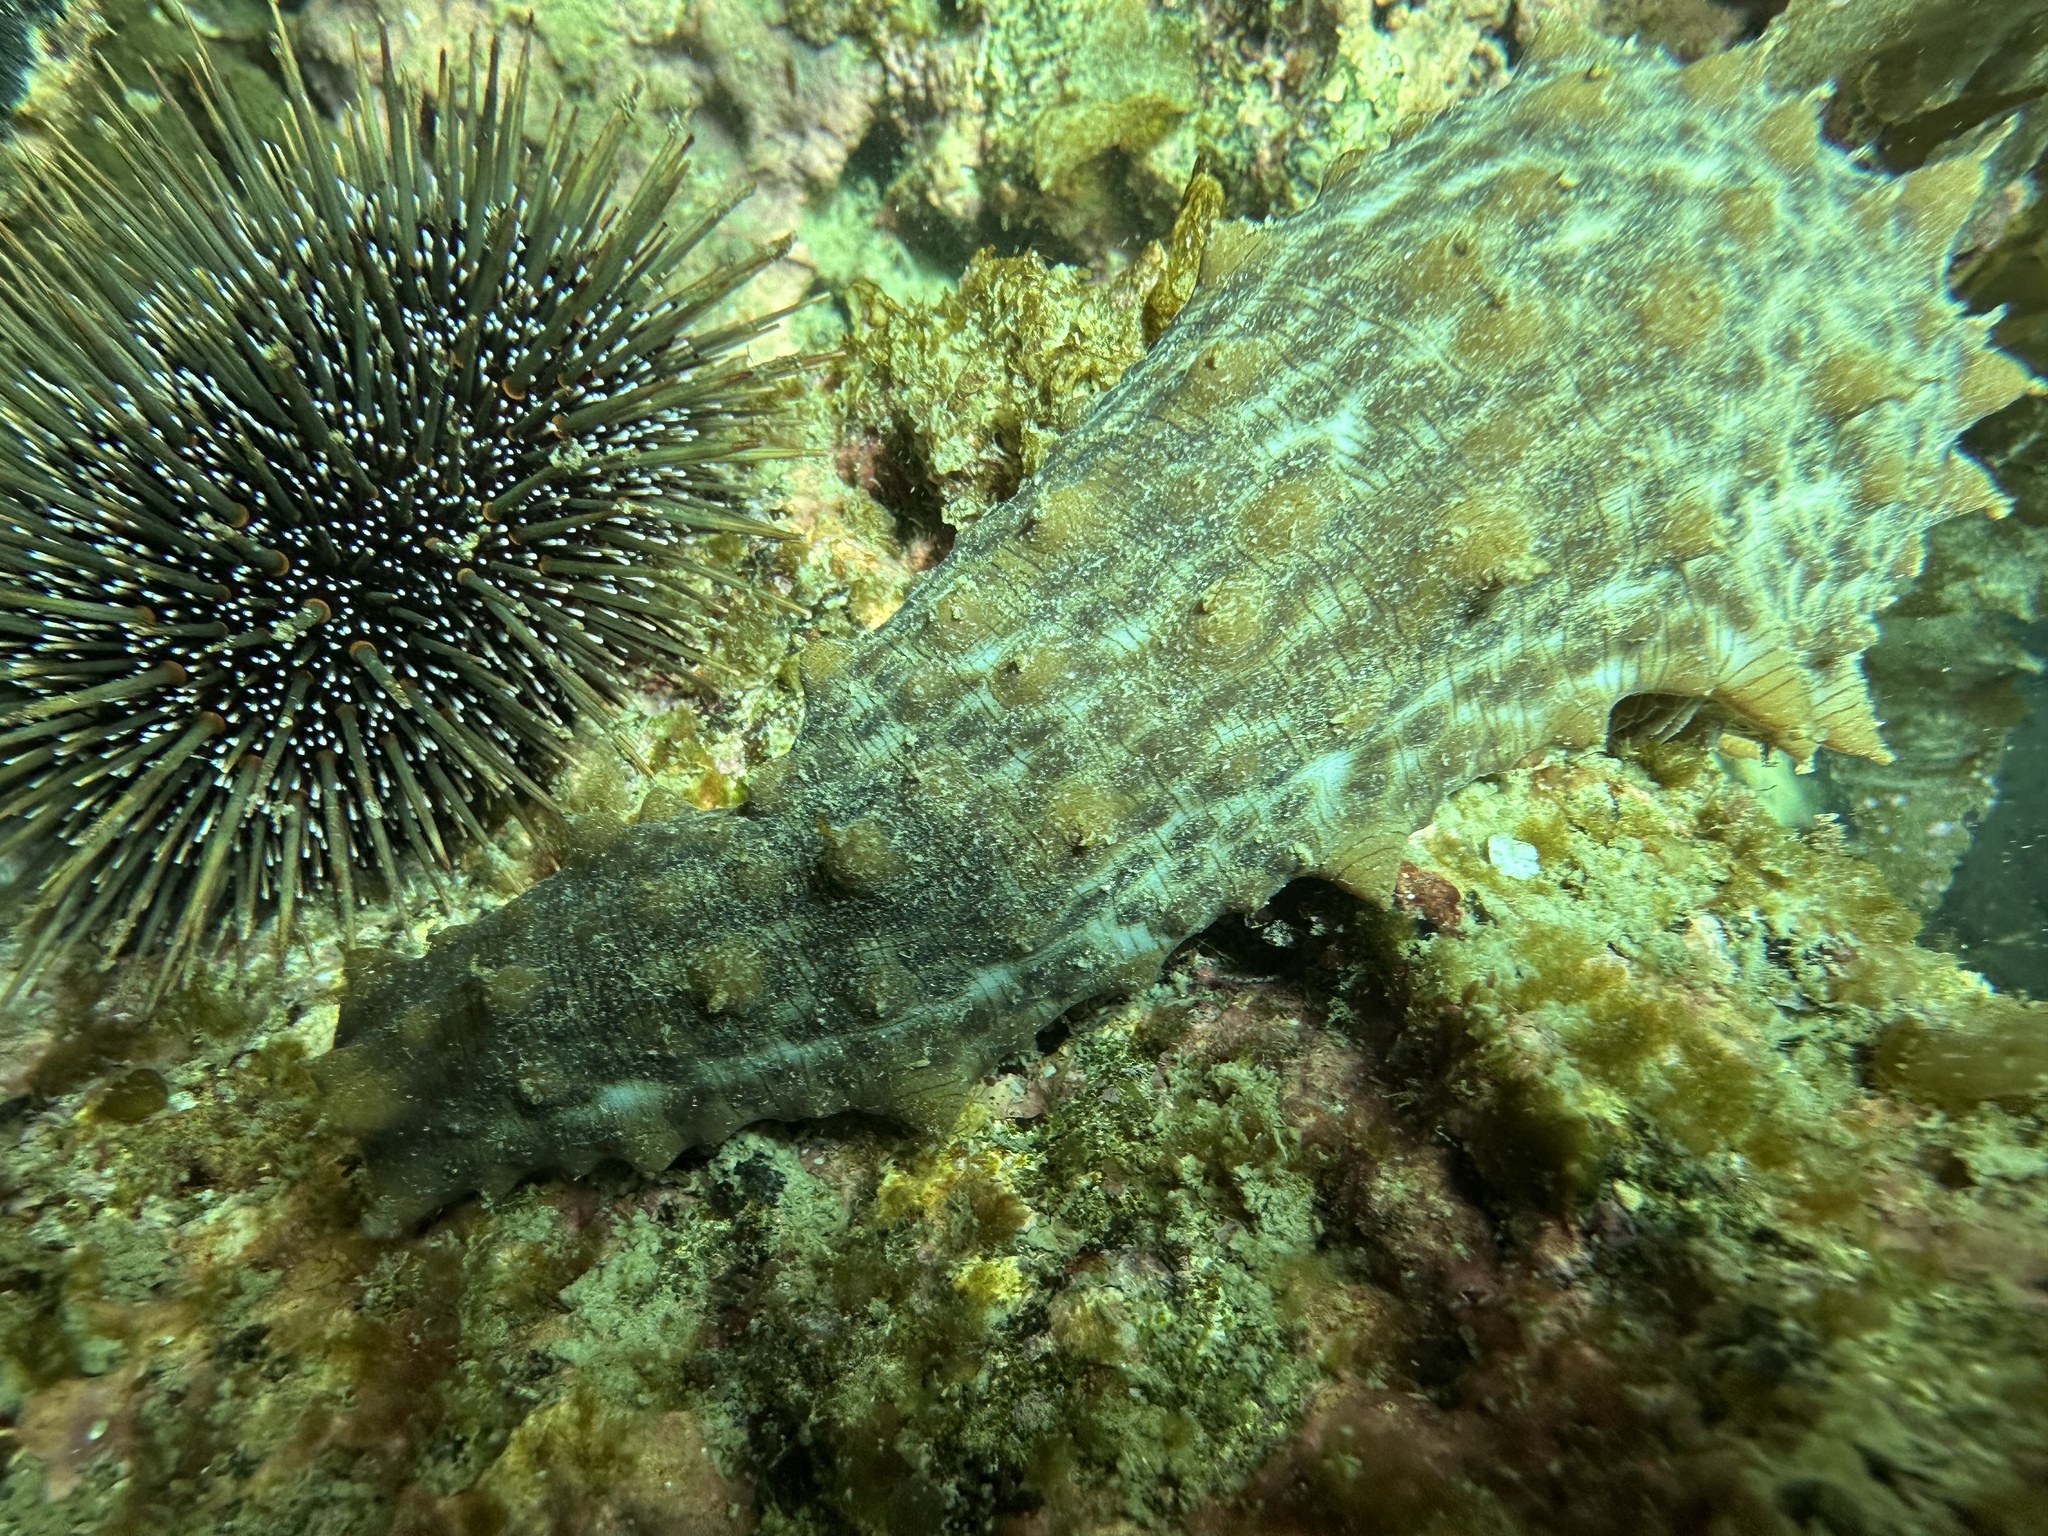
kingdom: Animalia
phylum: Echinodermata
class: Holothuroidea
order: Synallactida
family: Stichopodidae
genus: Australostichopus
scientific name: Australostichopus mollis
